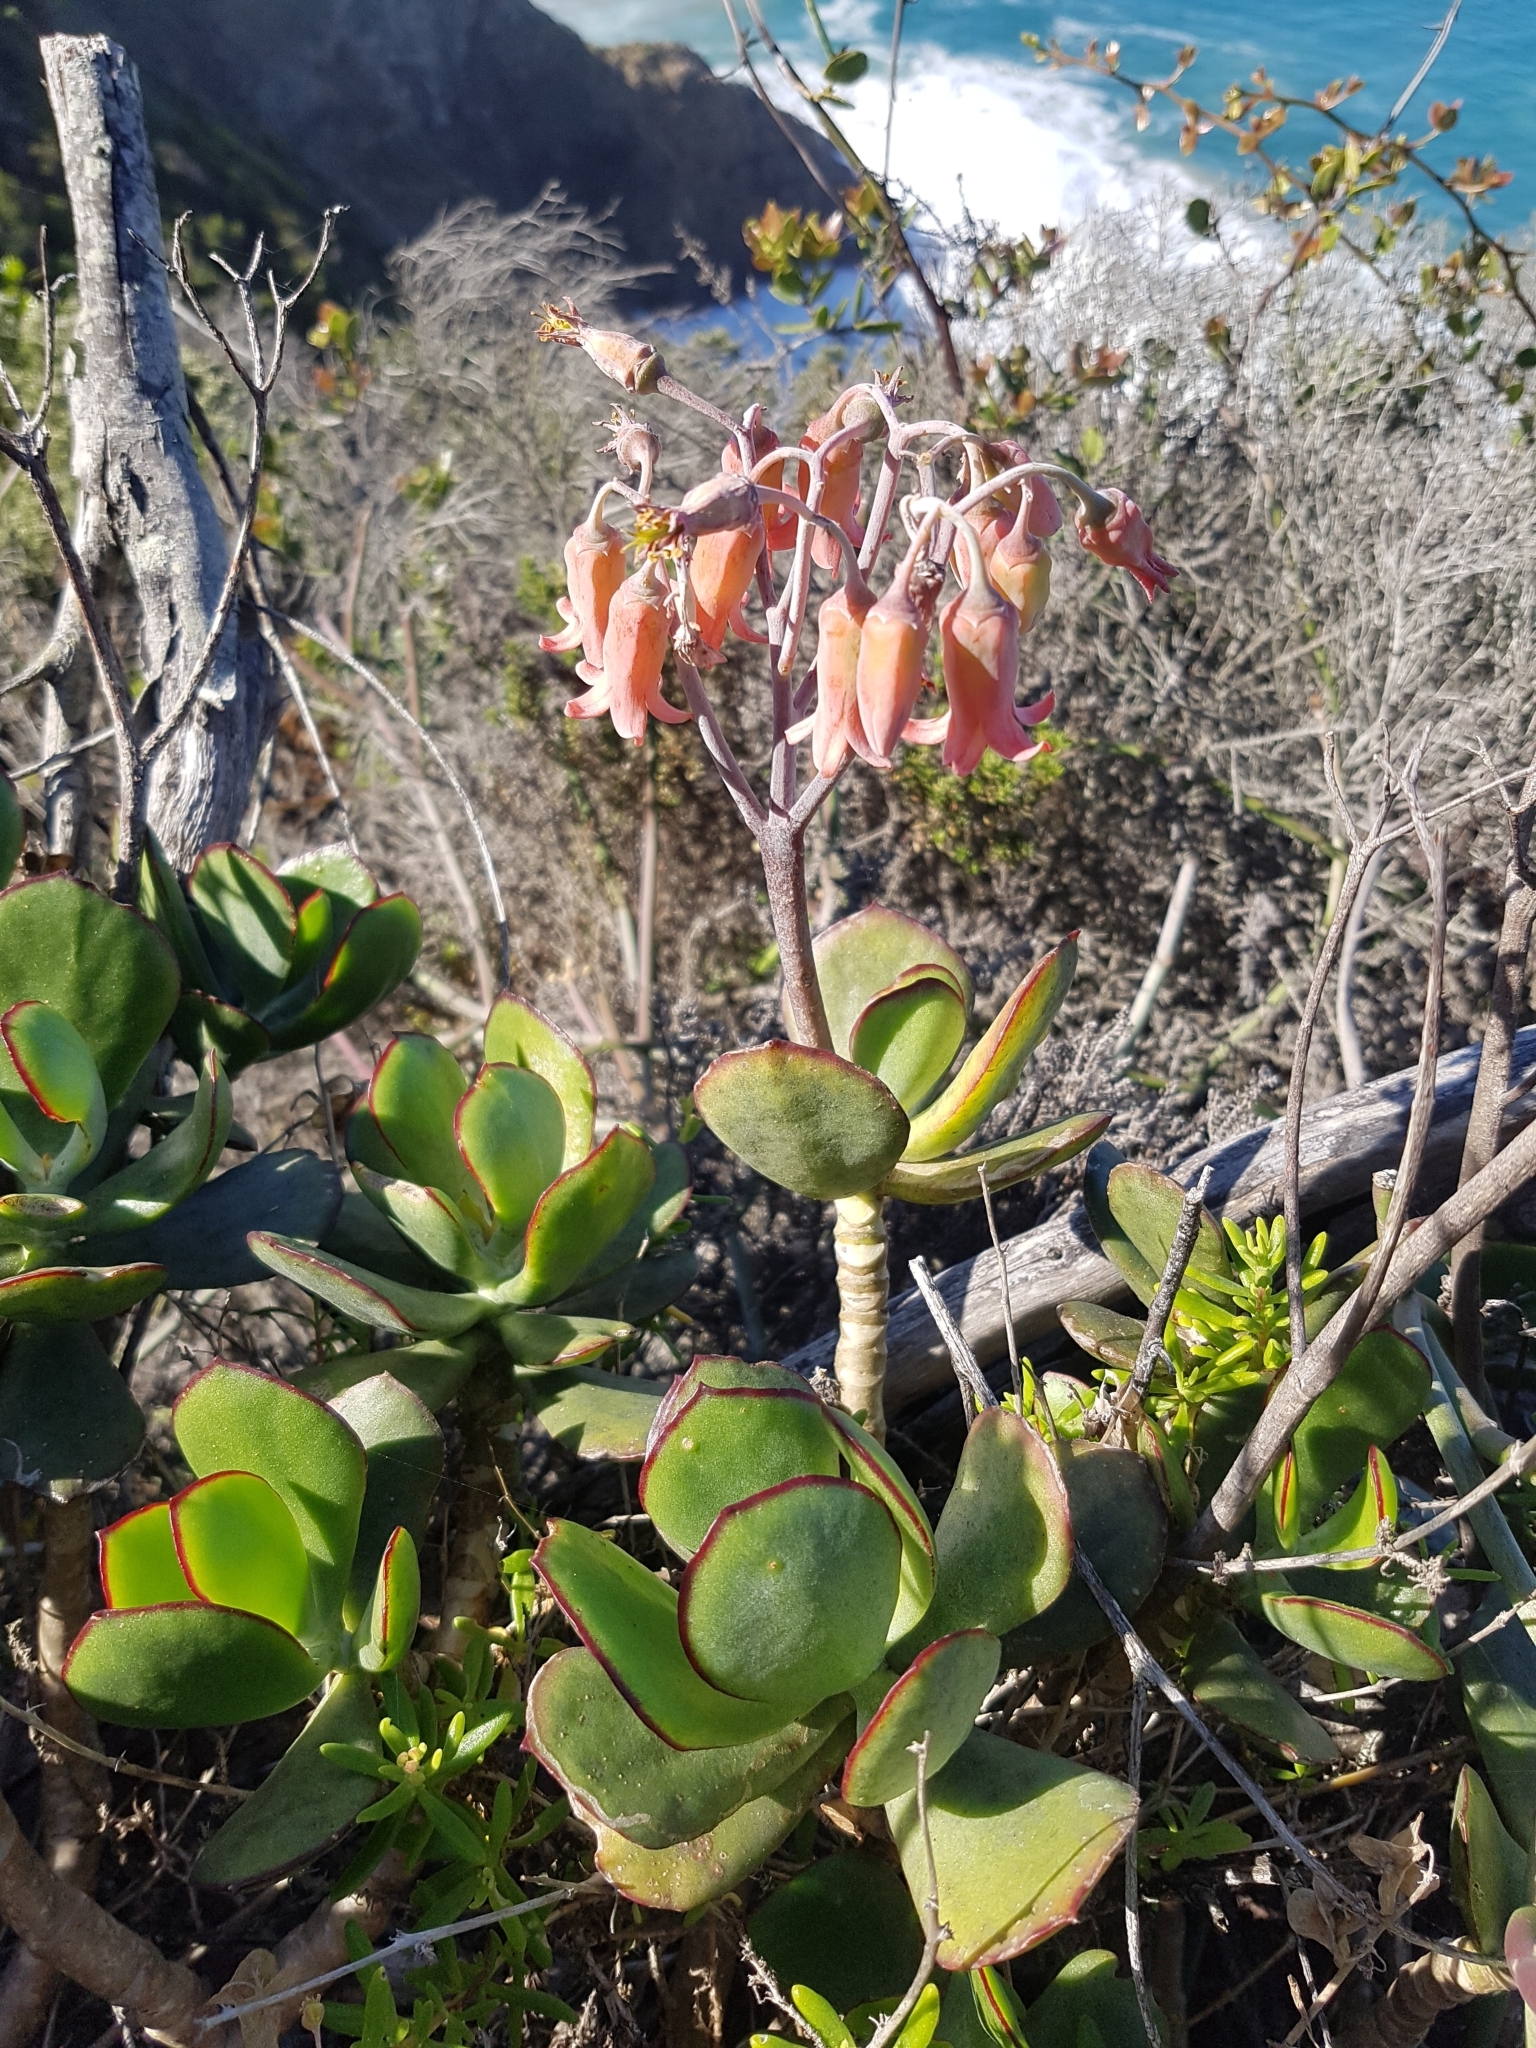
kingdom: Plantae
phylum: Tracheophyta
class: Magnoliopsida
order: Saxifragales
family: Crassulaceae
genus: Cotyledon
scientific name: Cotyledon orbiculata
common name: Pig's ear
